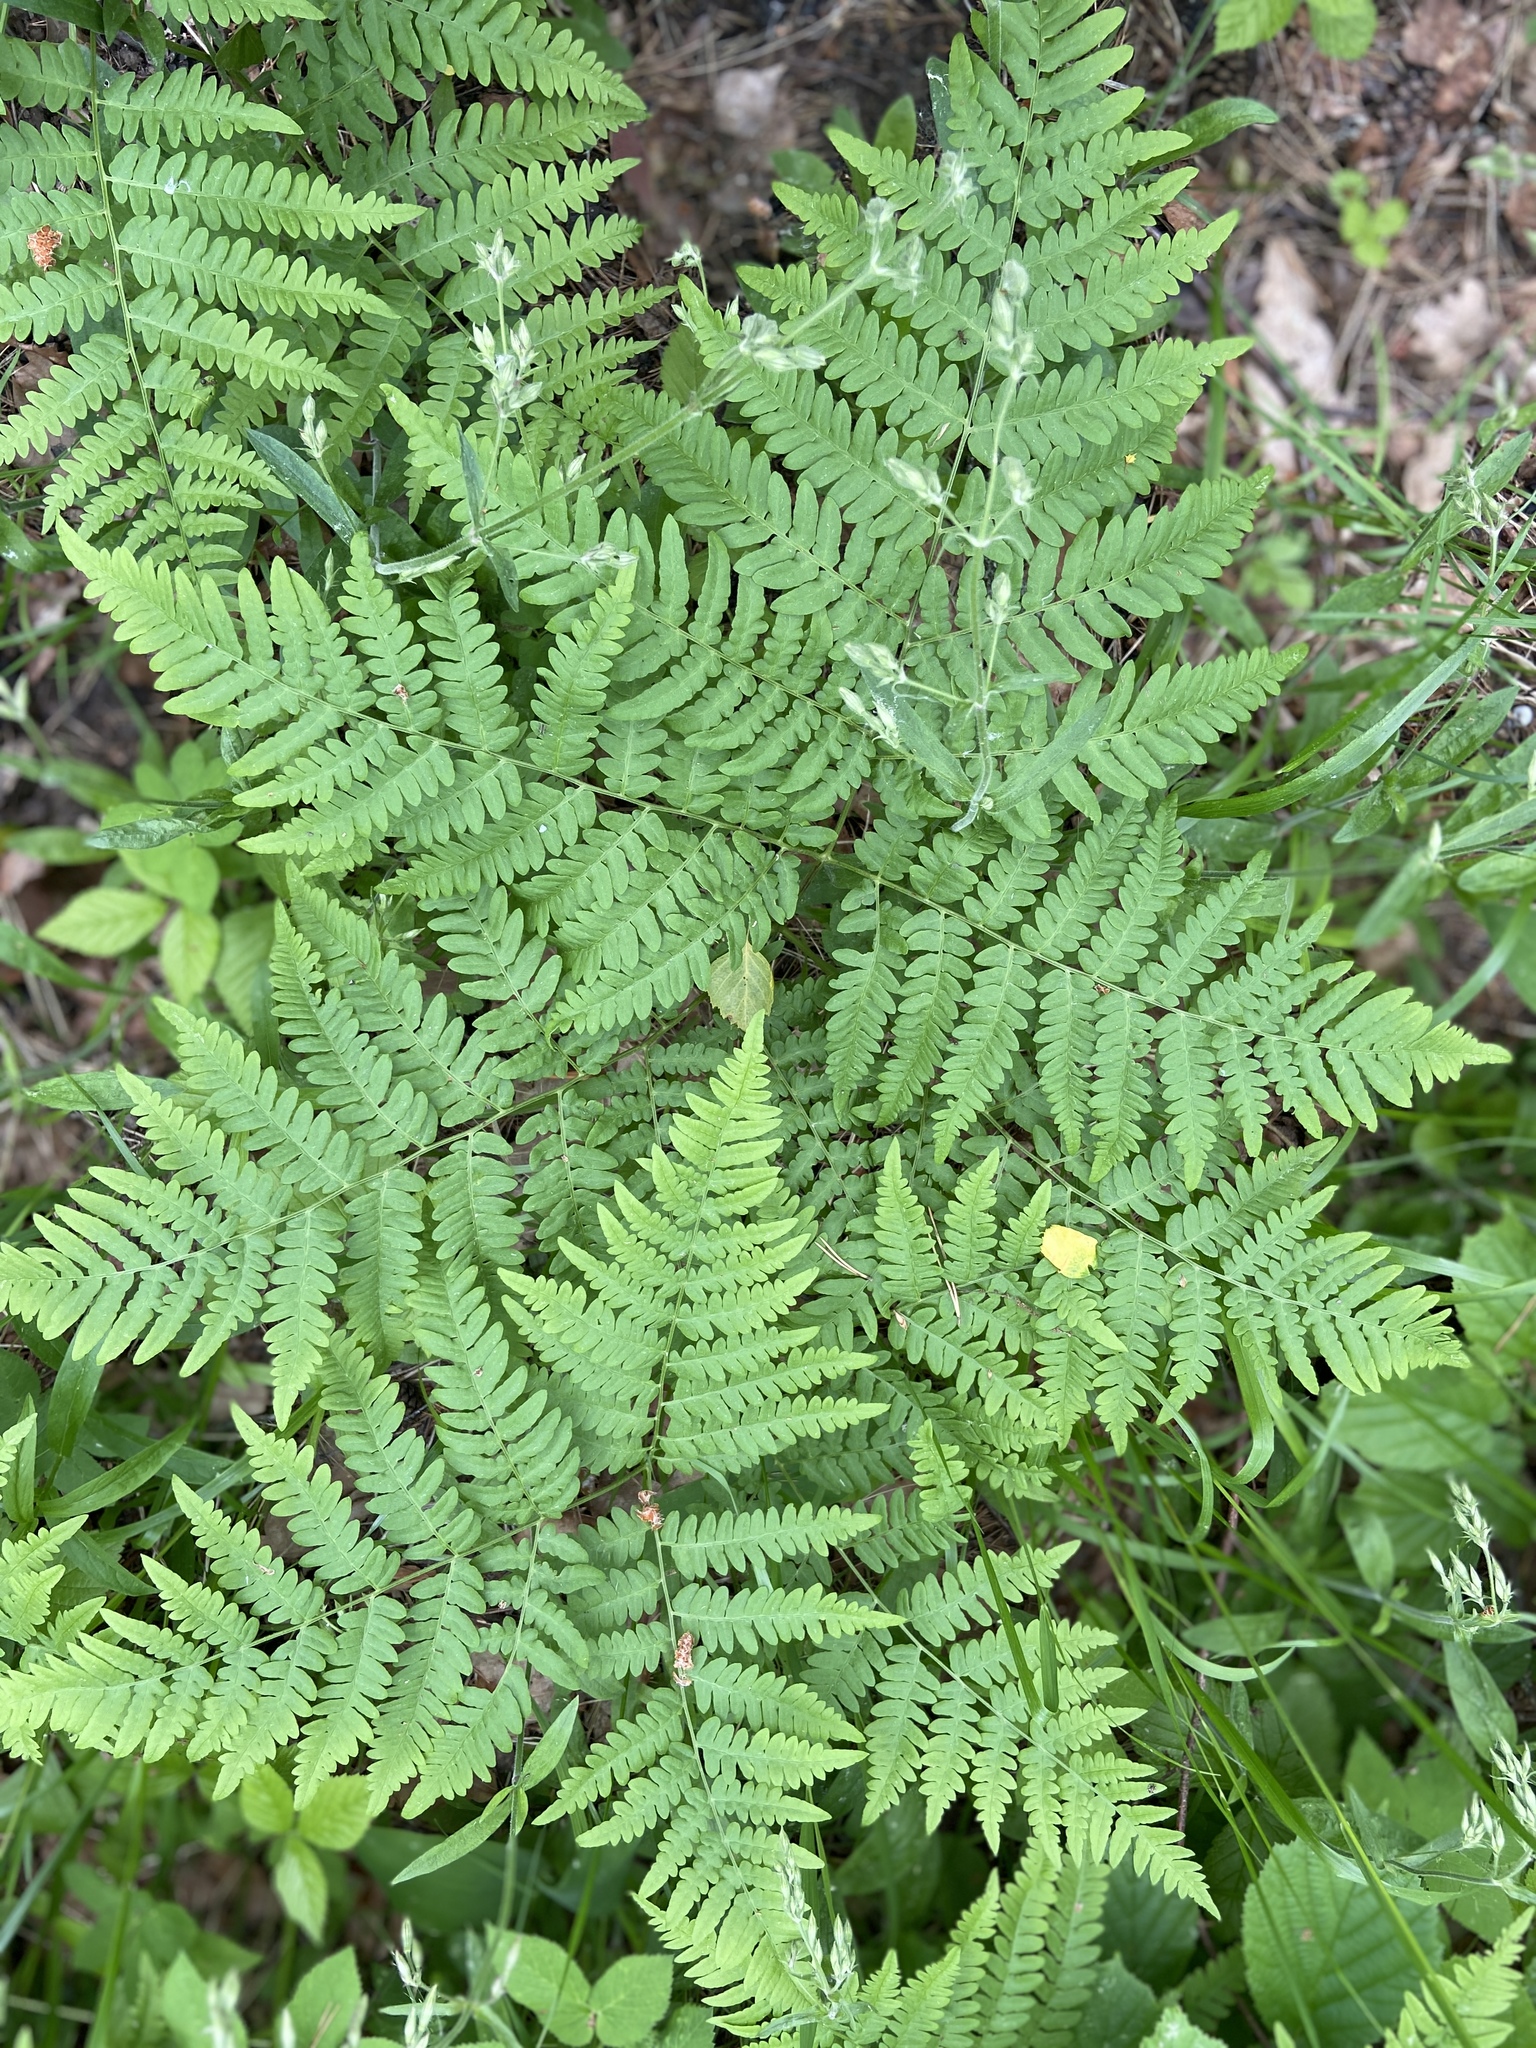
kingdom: Plantae
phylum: Tracheophyta
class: Polypodiopsida
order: Polypodiales
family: Dennstaedtiaceae
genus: Pteridium
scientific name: Pteridium aquilinum
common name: Bracken
